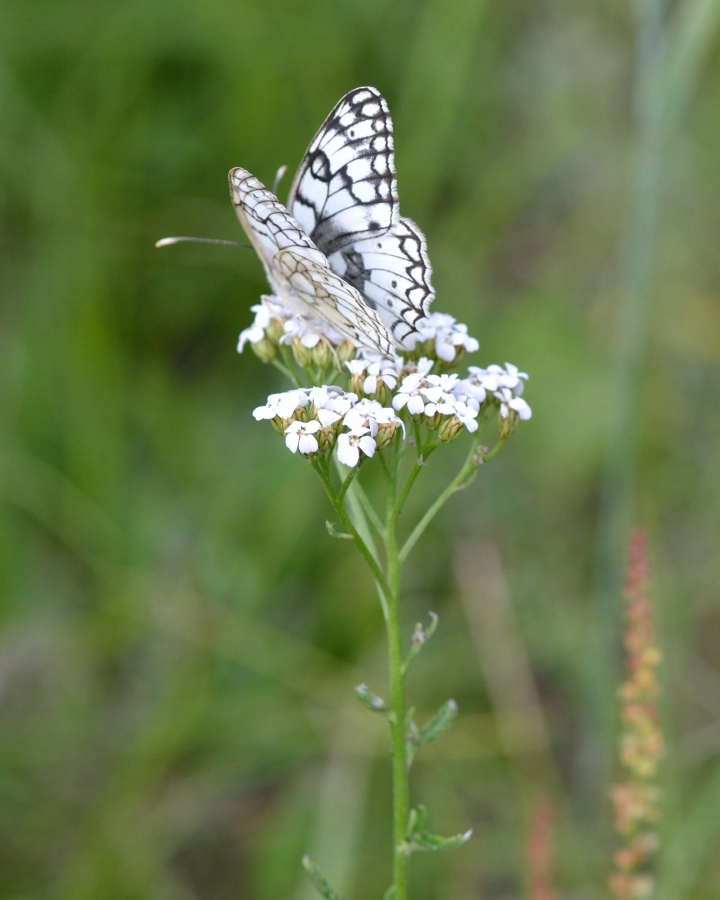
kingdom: Animalia
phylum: Arthropoda
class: Insecta
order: Lepidoptera
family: Nymphalidae
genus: Melanargia
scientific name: Melanargia japygia
